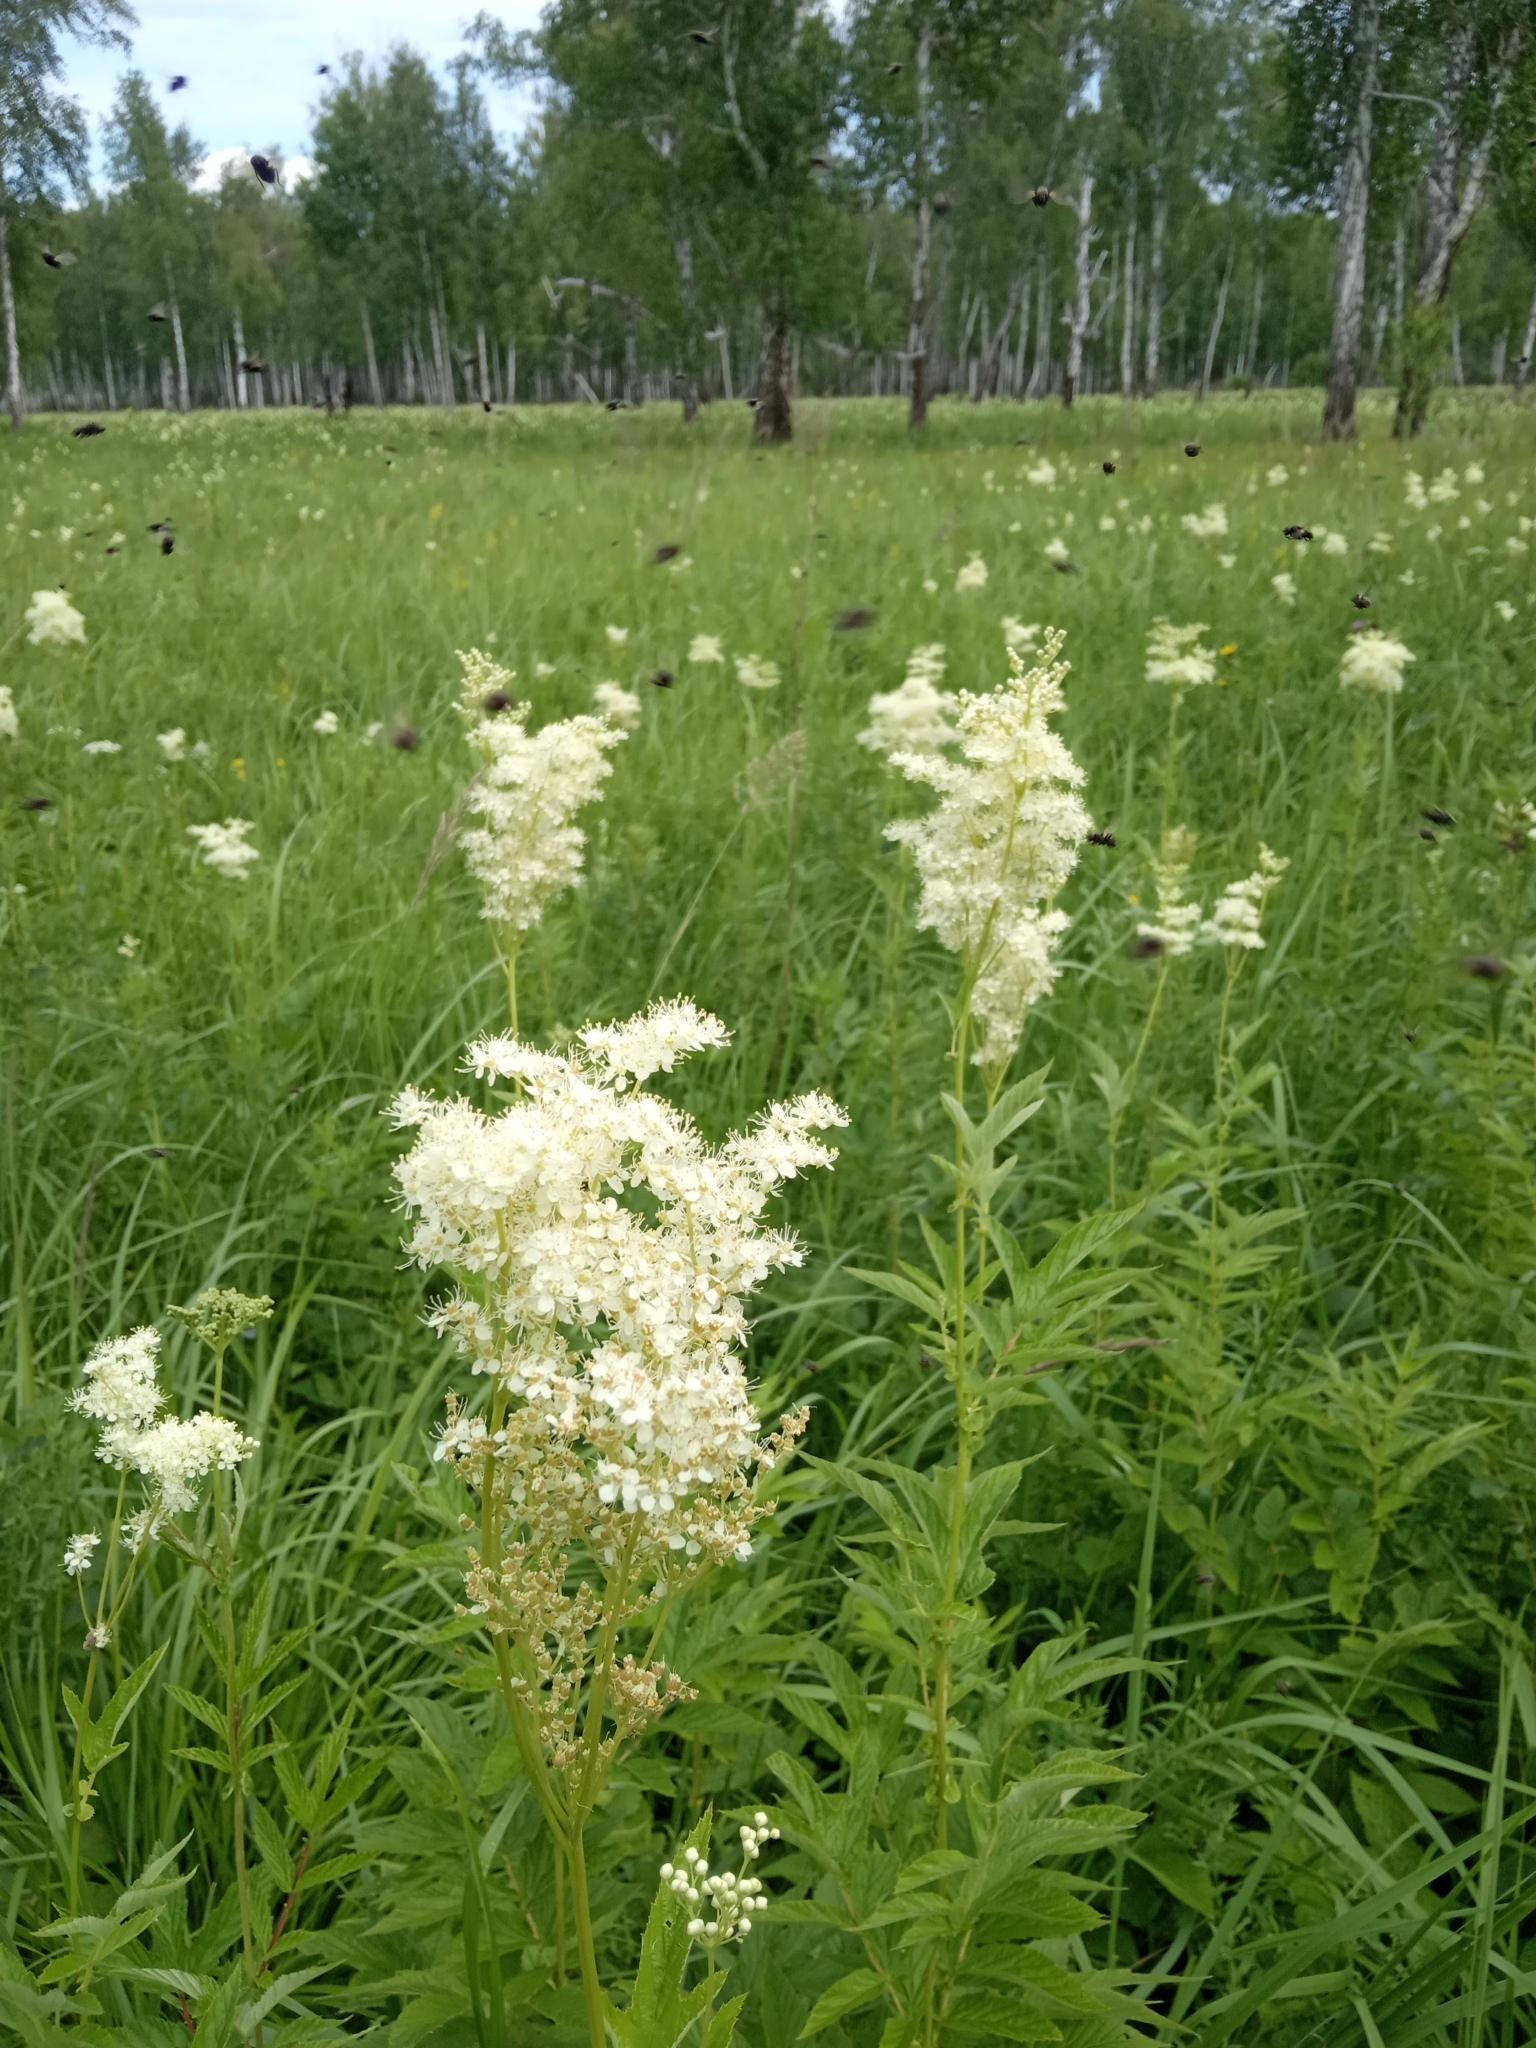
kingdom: Plantae
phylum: Tracheophyta
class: Magnoliopsida
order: Rosales
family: Rosaceae
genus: Filipendula
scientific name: Filipendula ulmaria
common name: Meadowsweet
